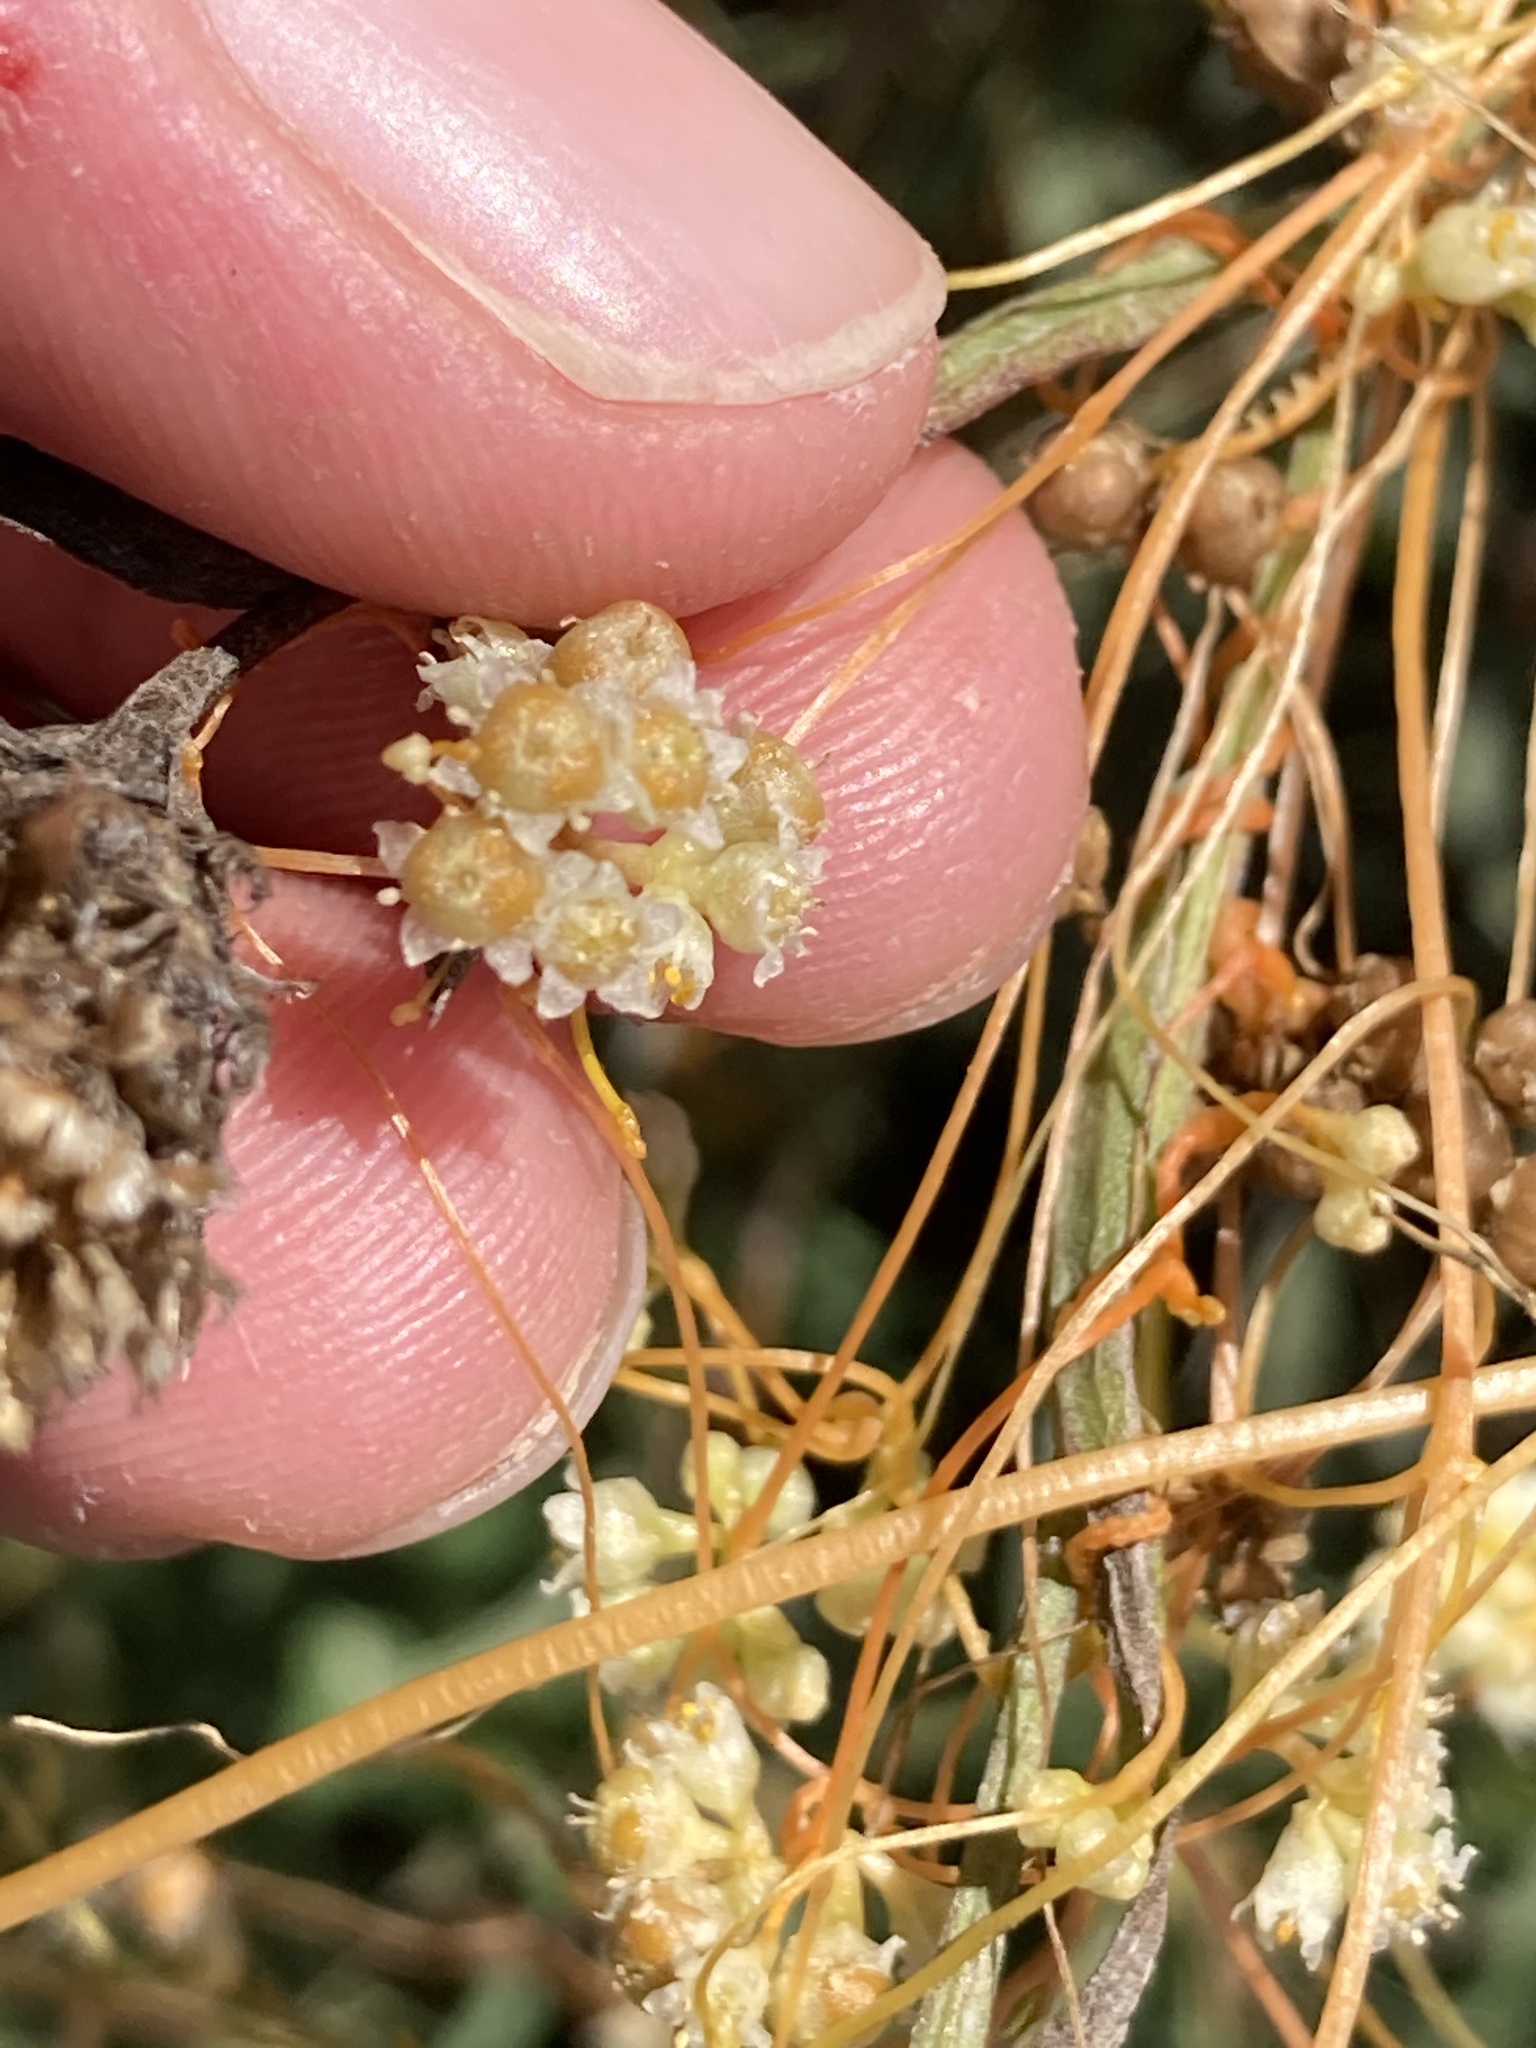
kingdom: Plantae
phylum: Tracheophyta
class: Magnoliopsida
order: Solanales
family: Convolvulaceae
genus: Cuscuta
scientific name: Cuscuta campestris
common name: Yellow dodder
